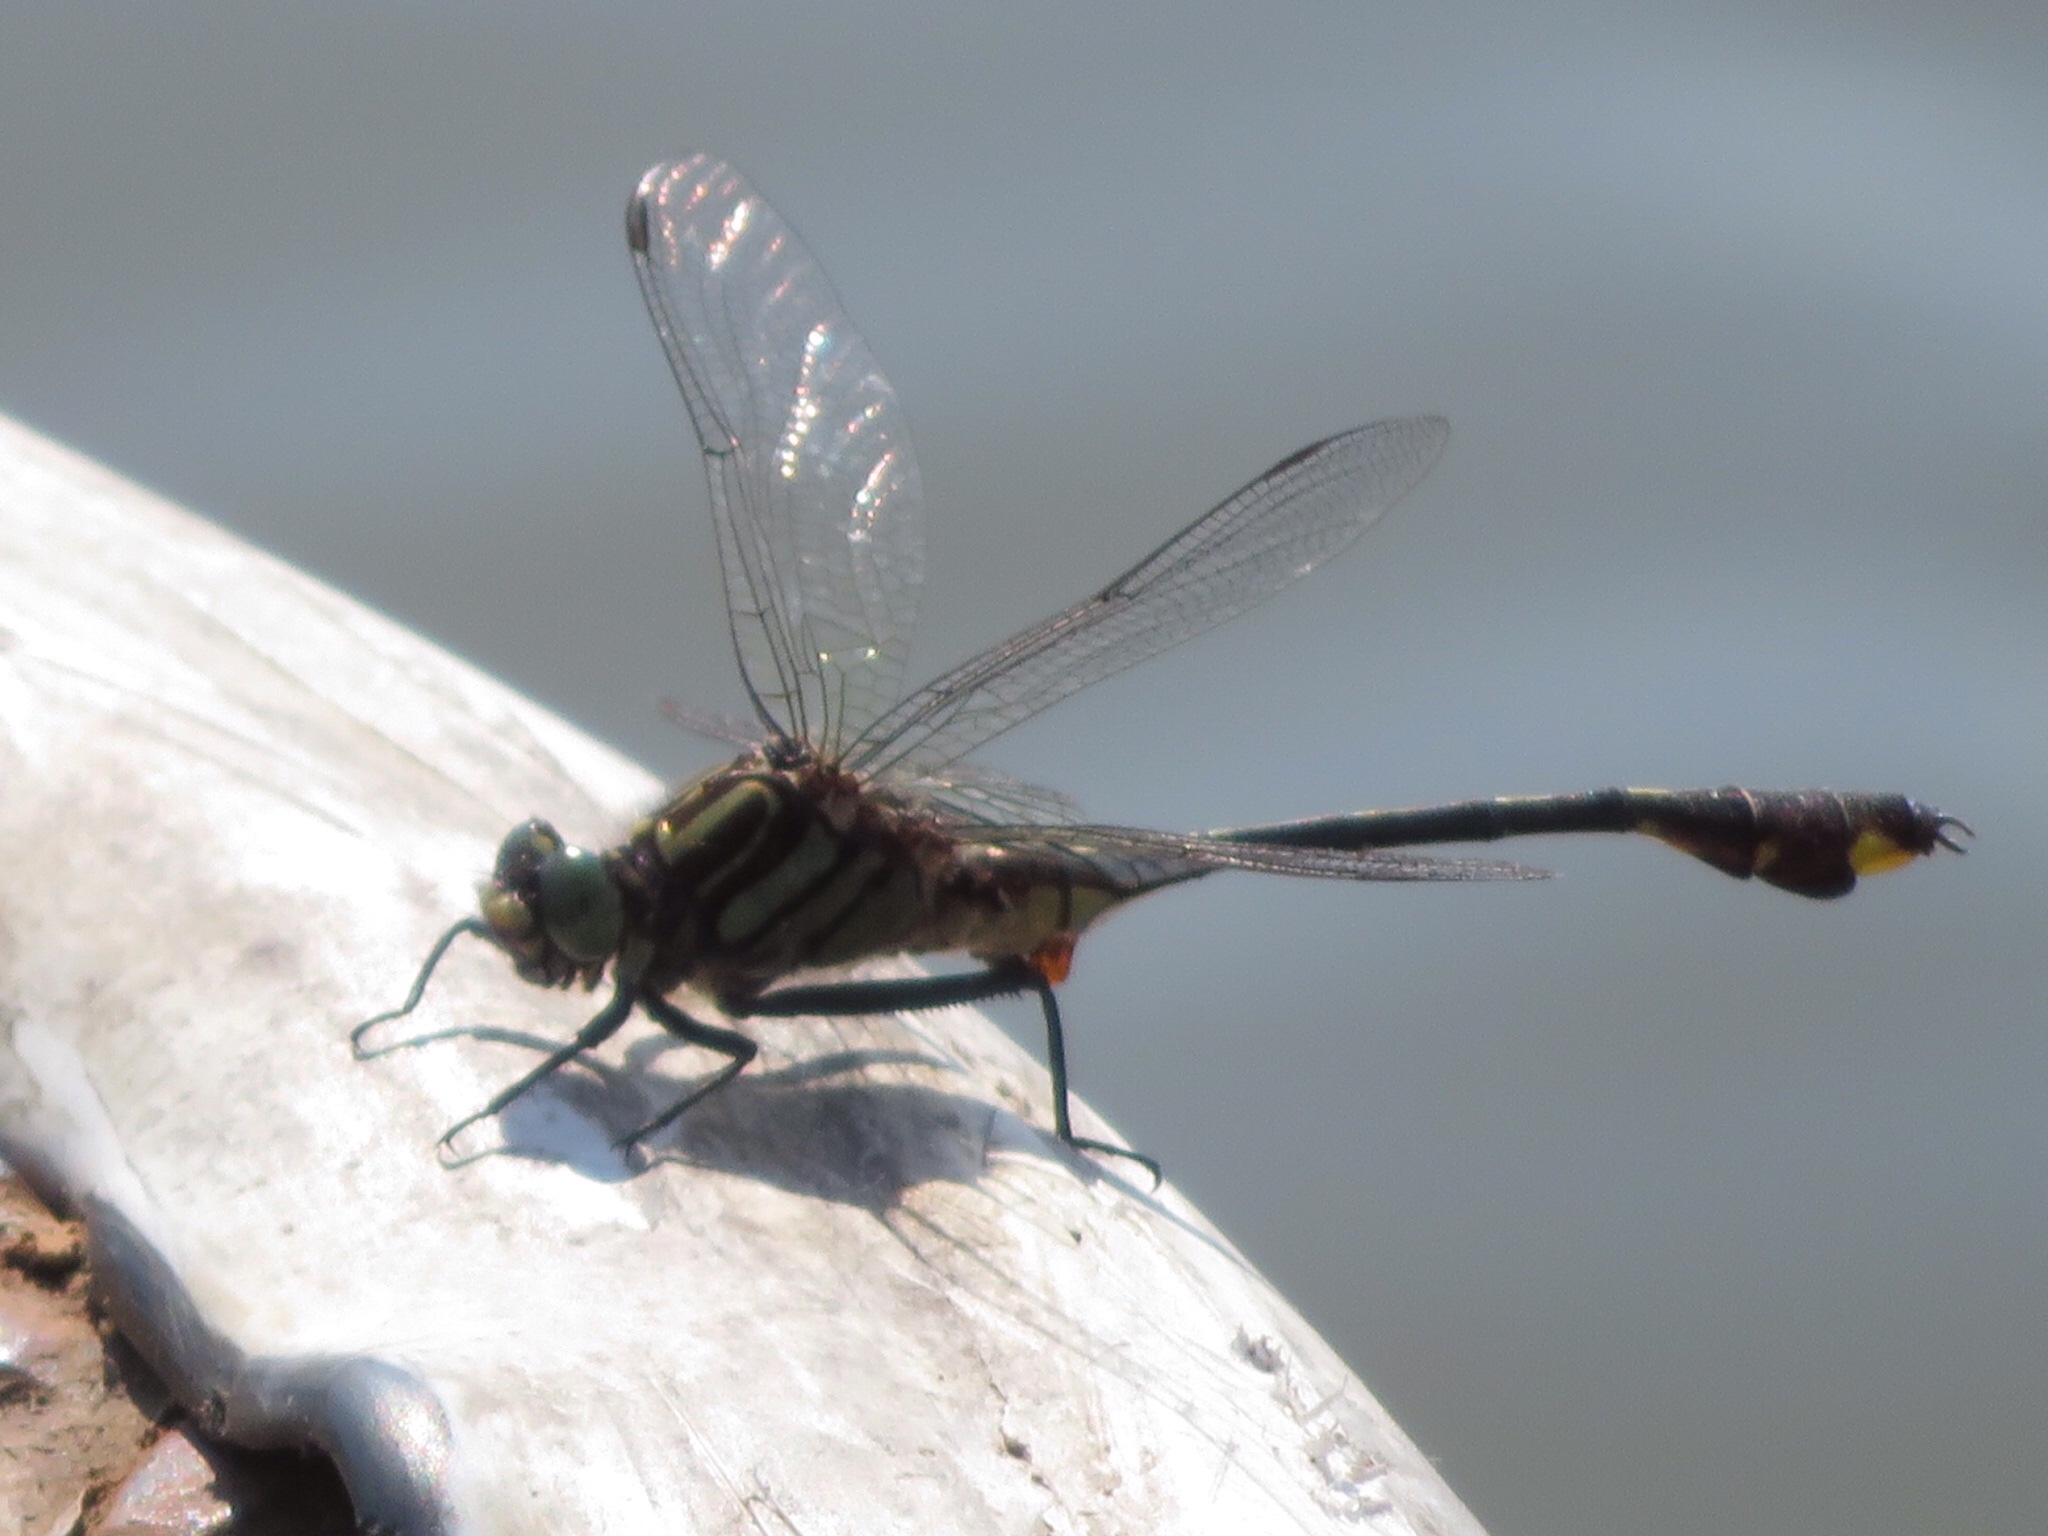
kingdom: Animalia
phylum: Arthropoda
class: Insecta
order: Odonata
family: Gomphidae
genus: Gomphurus
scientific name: Gomphurus fraternus
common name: Midland clubtail
